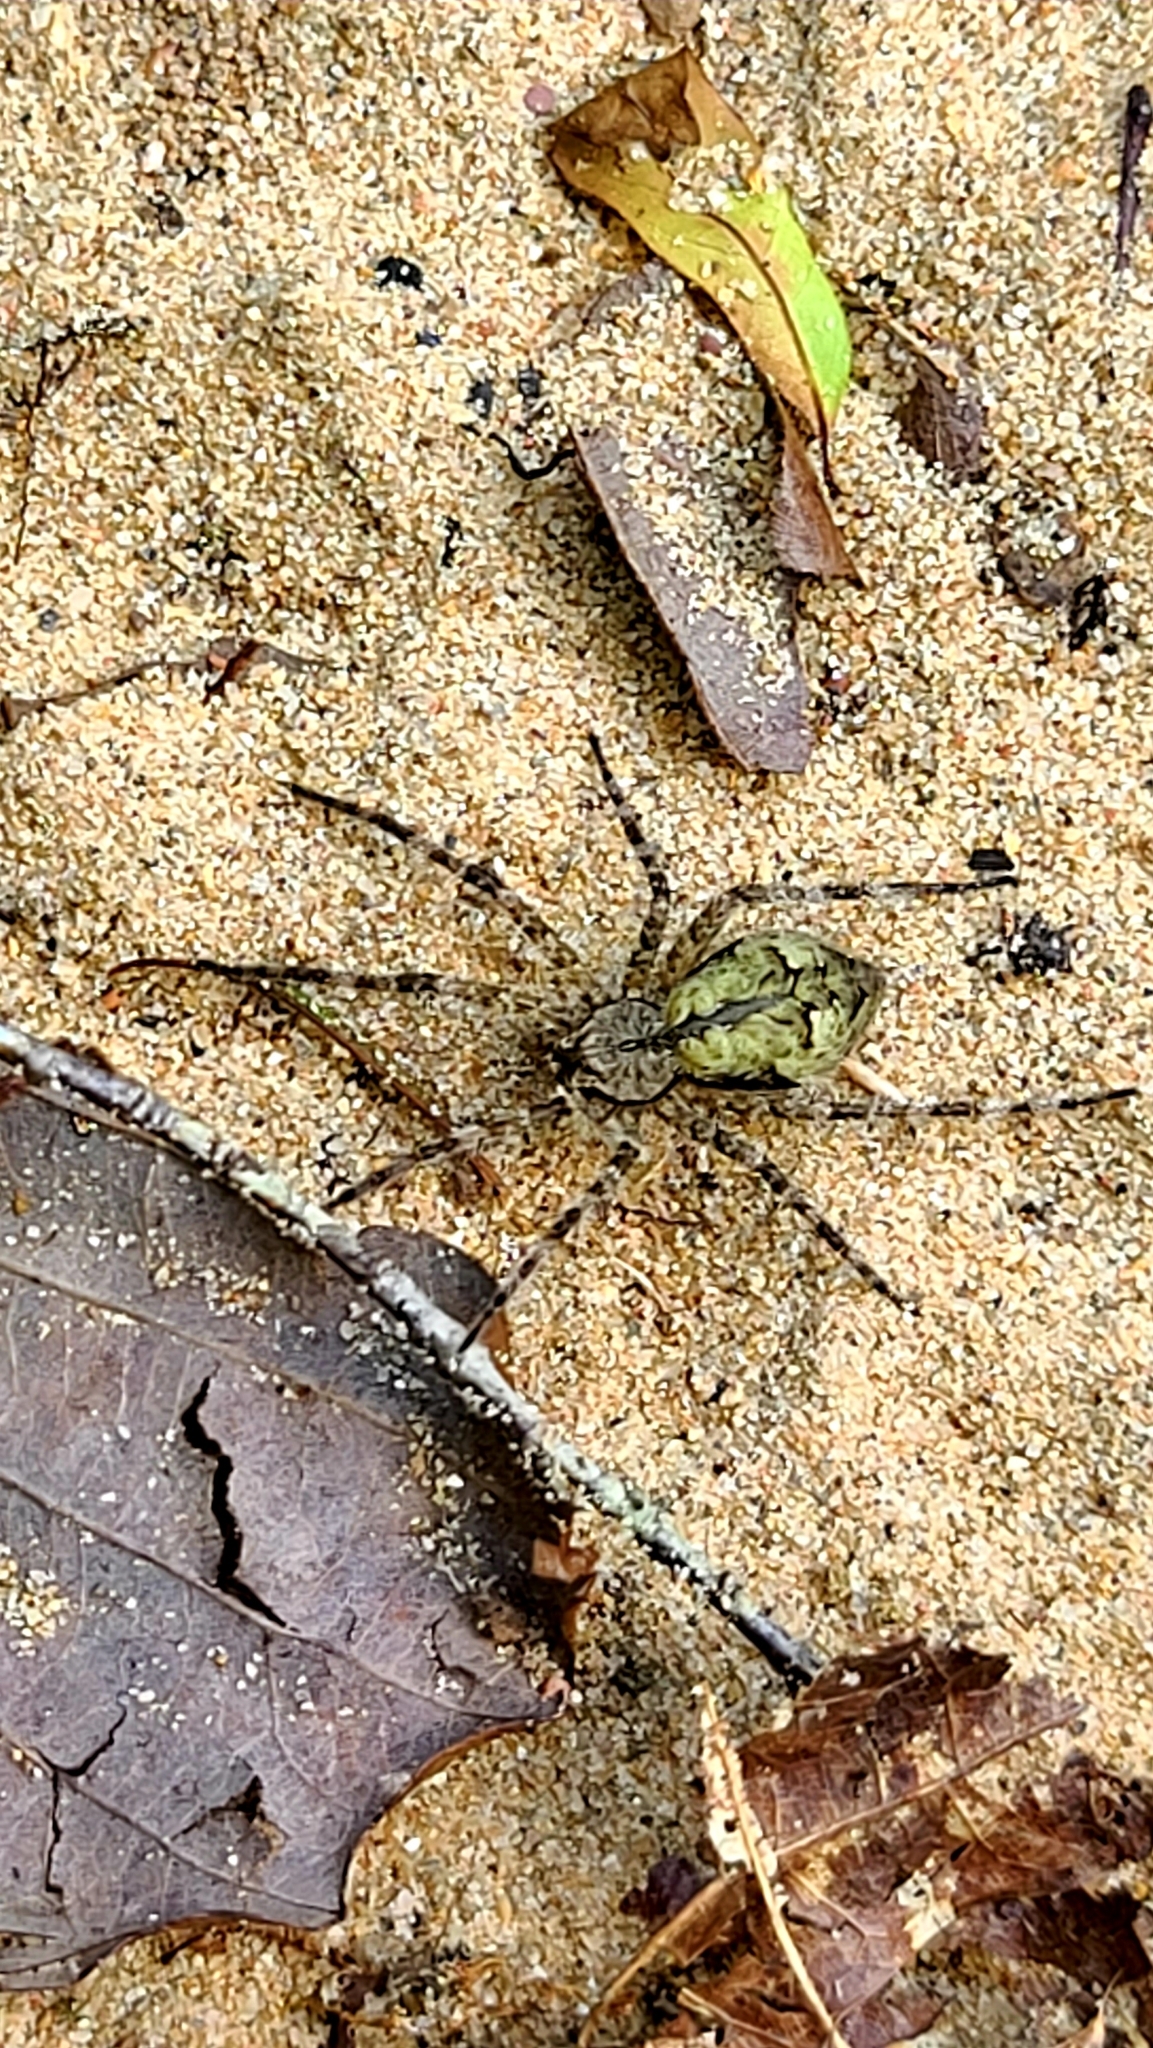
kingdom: Animalia
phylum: Arthropoda
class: Arachnida
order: Araneae
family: Pisauridae
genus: Dolomedes
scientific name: Dolomedes albineus
